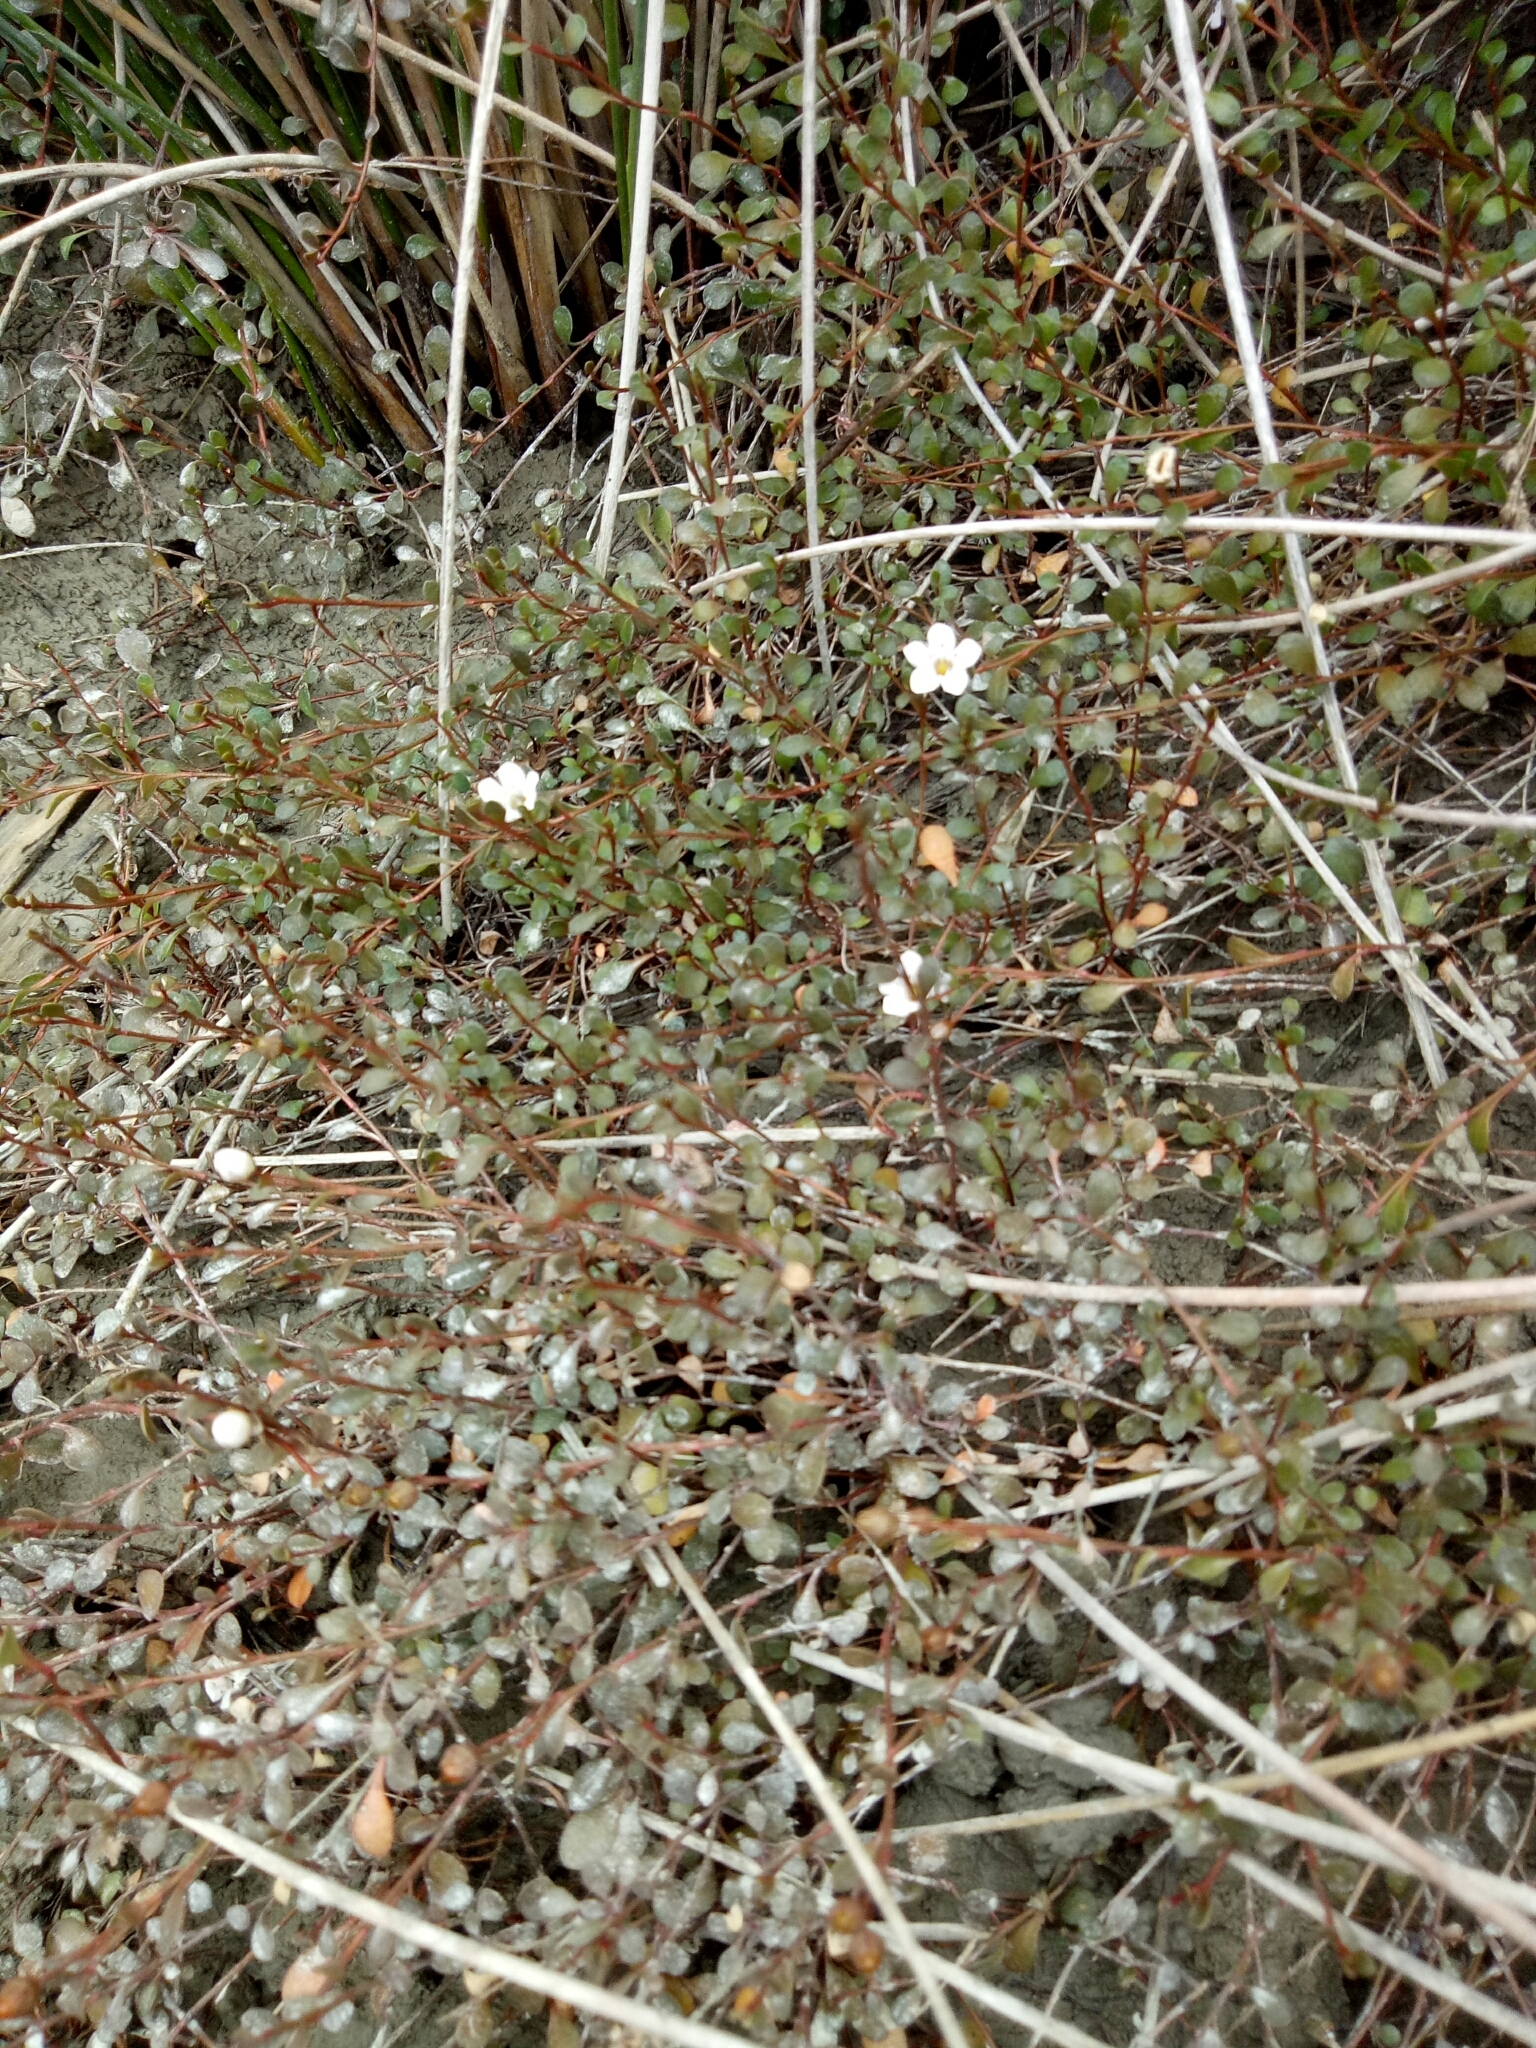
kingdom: Plantae
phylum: Tracheophyta
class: Magnoliopsida
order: Ericales
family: Primulaceae
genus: Samolus
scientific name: Samolus repens
